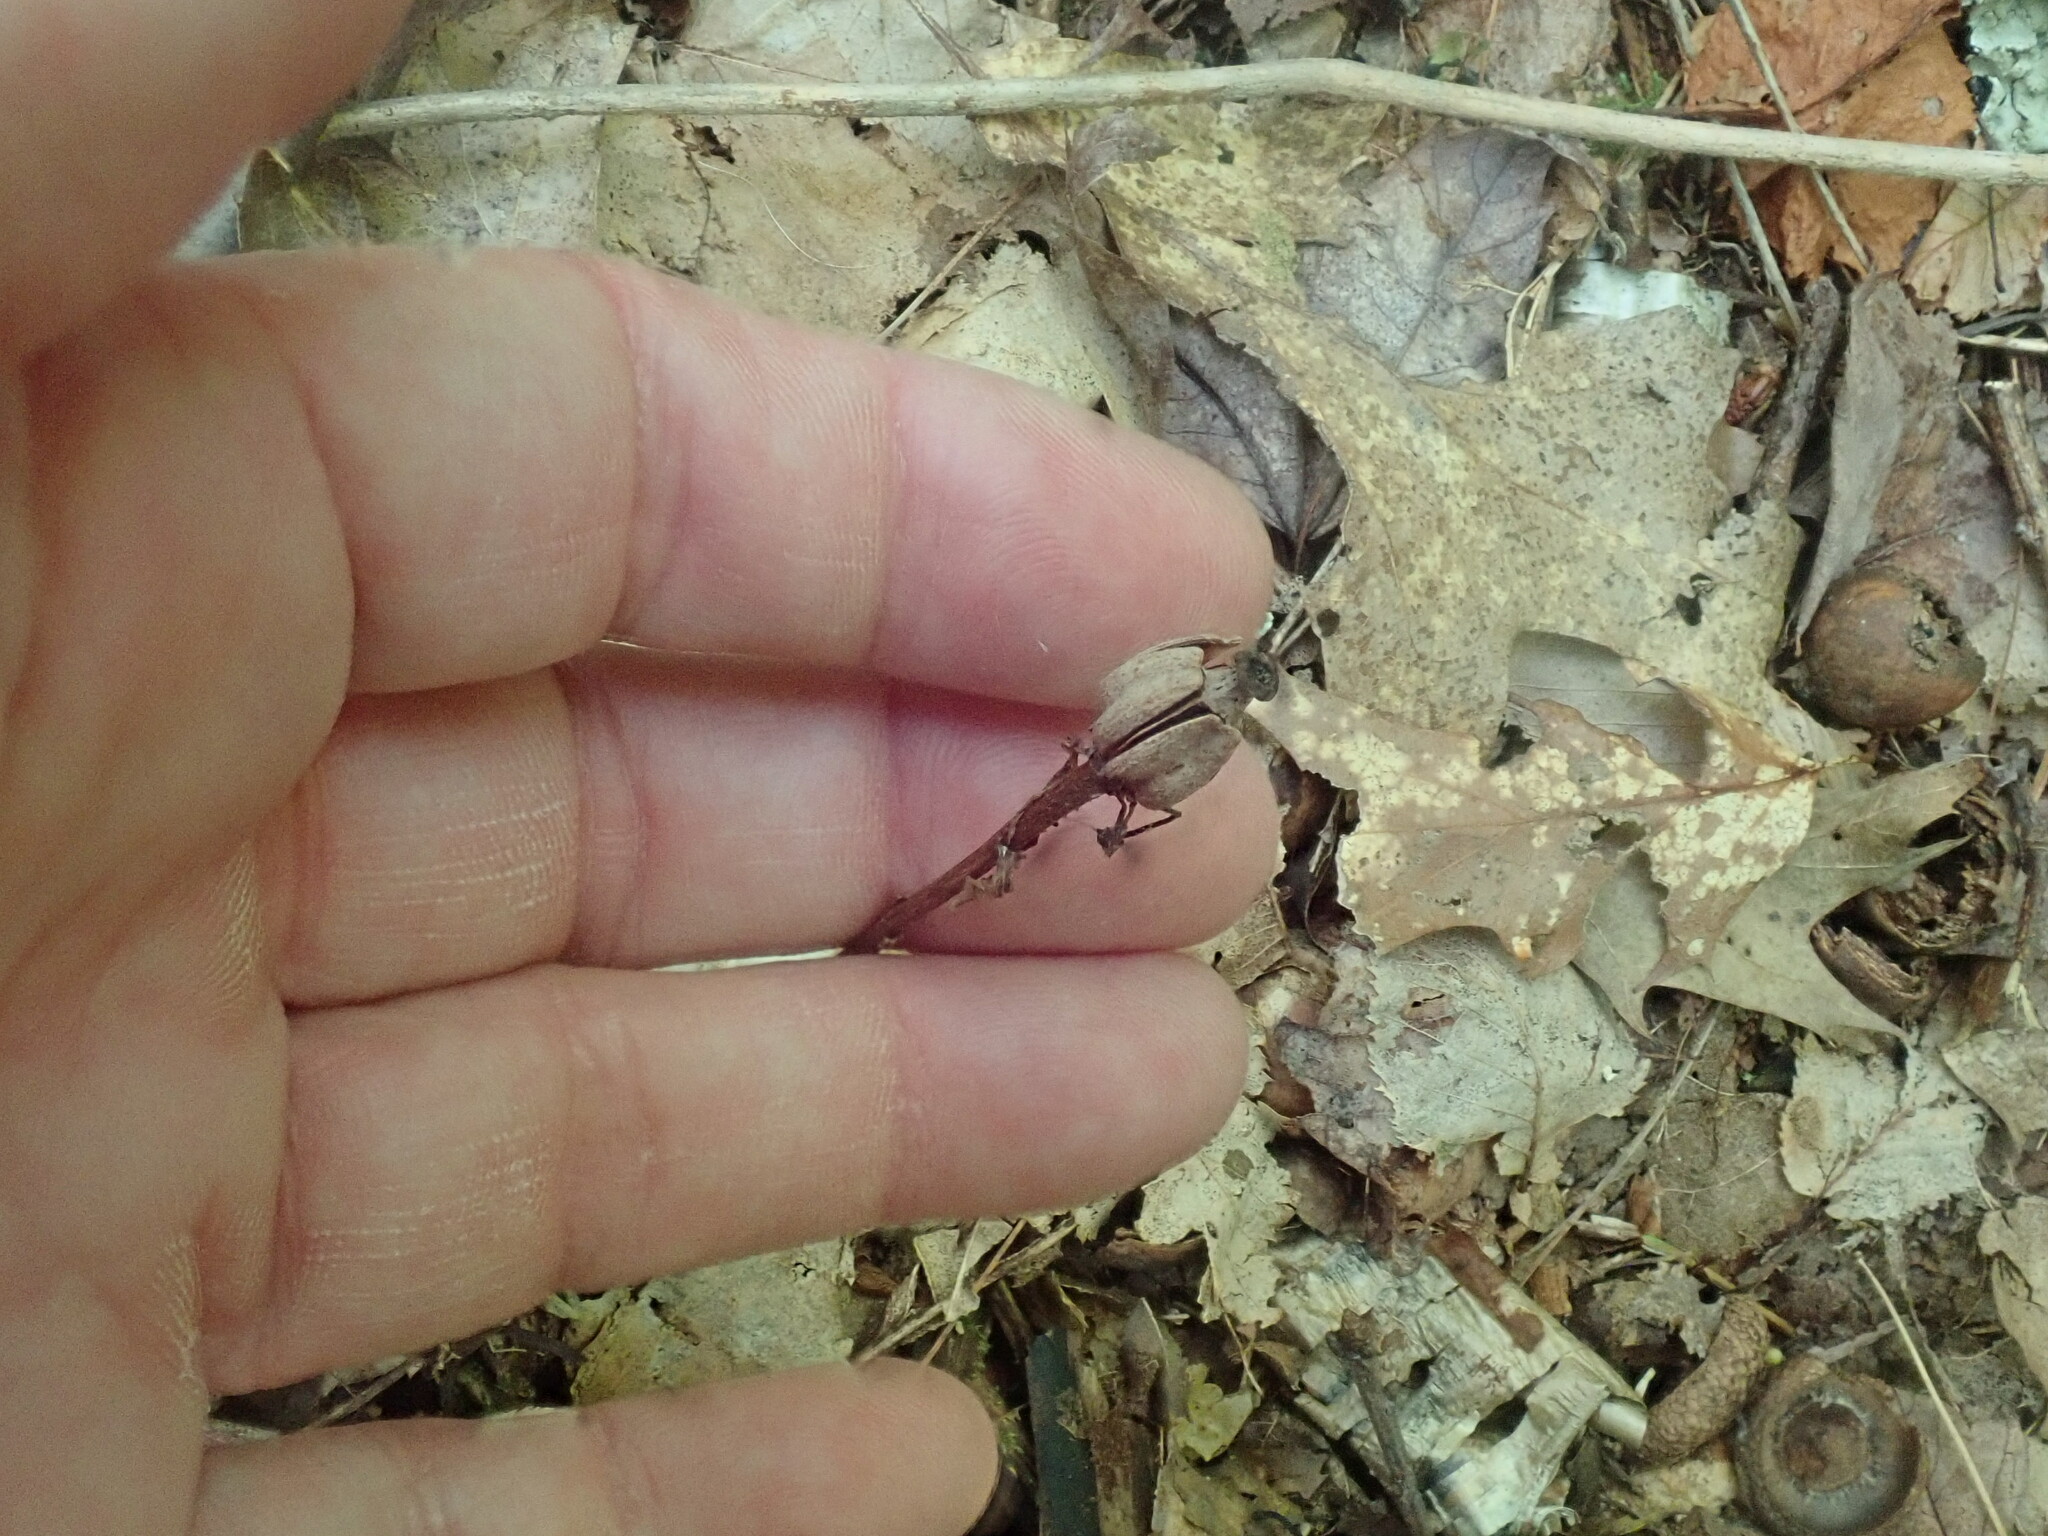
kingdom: Plantae
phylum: Tracheophyta
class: Magnoliopsida
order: Ericales
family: Ericaceae
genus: Monotropa
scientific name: Monotropa uniflora
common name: Convulsion root
